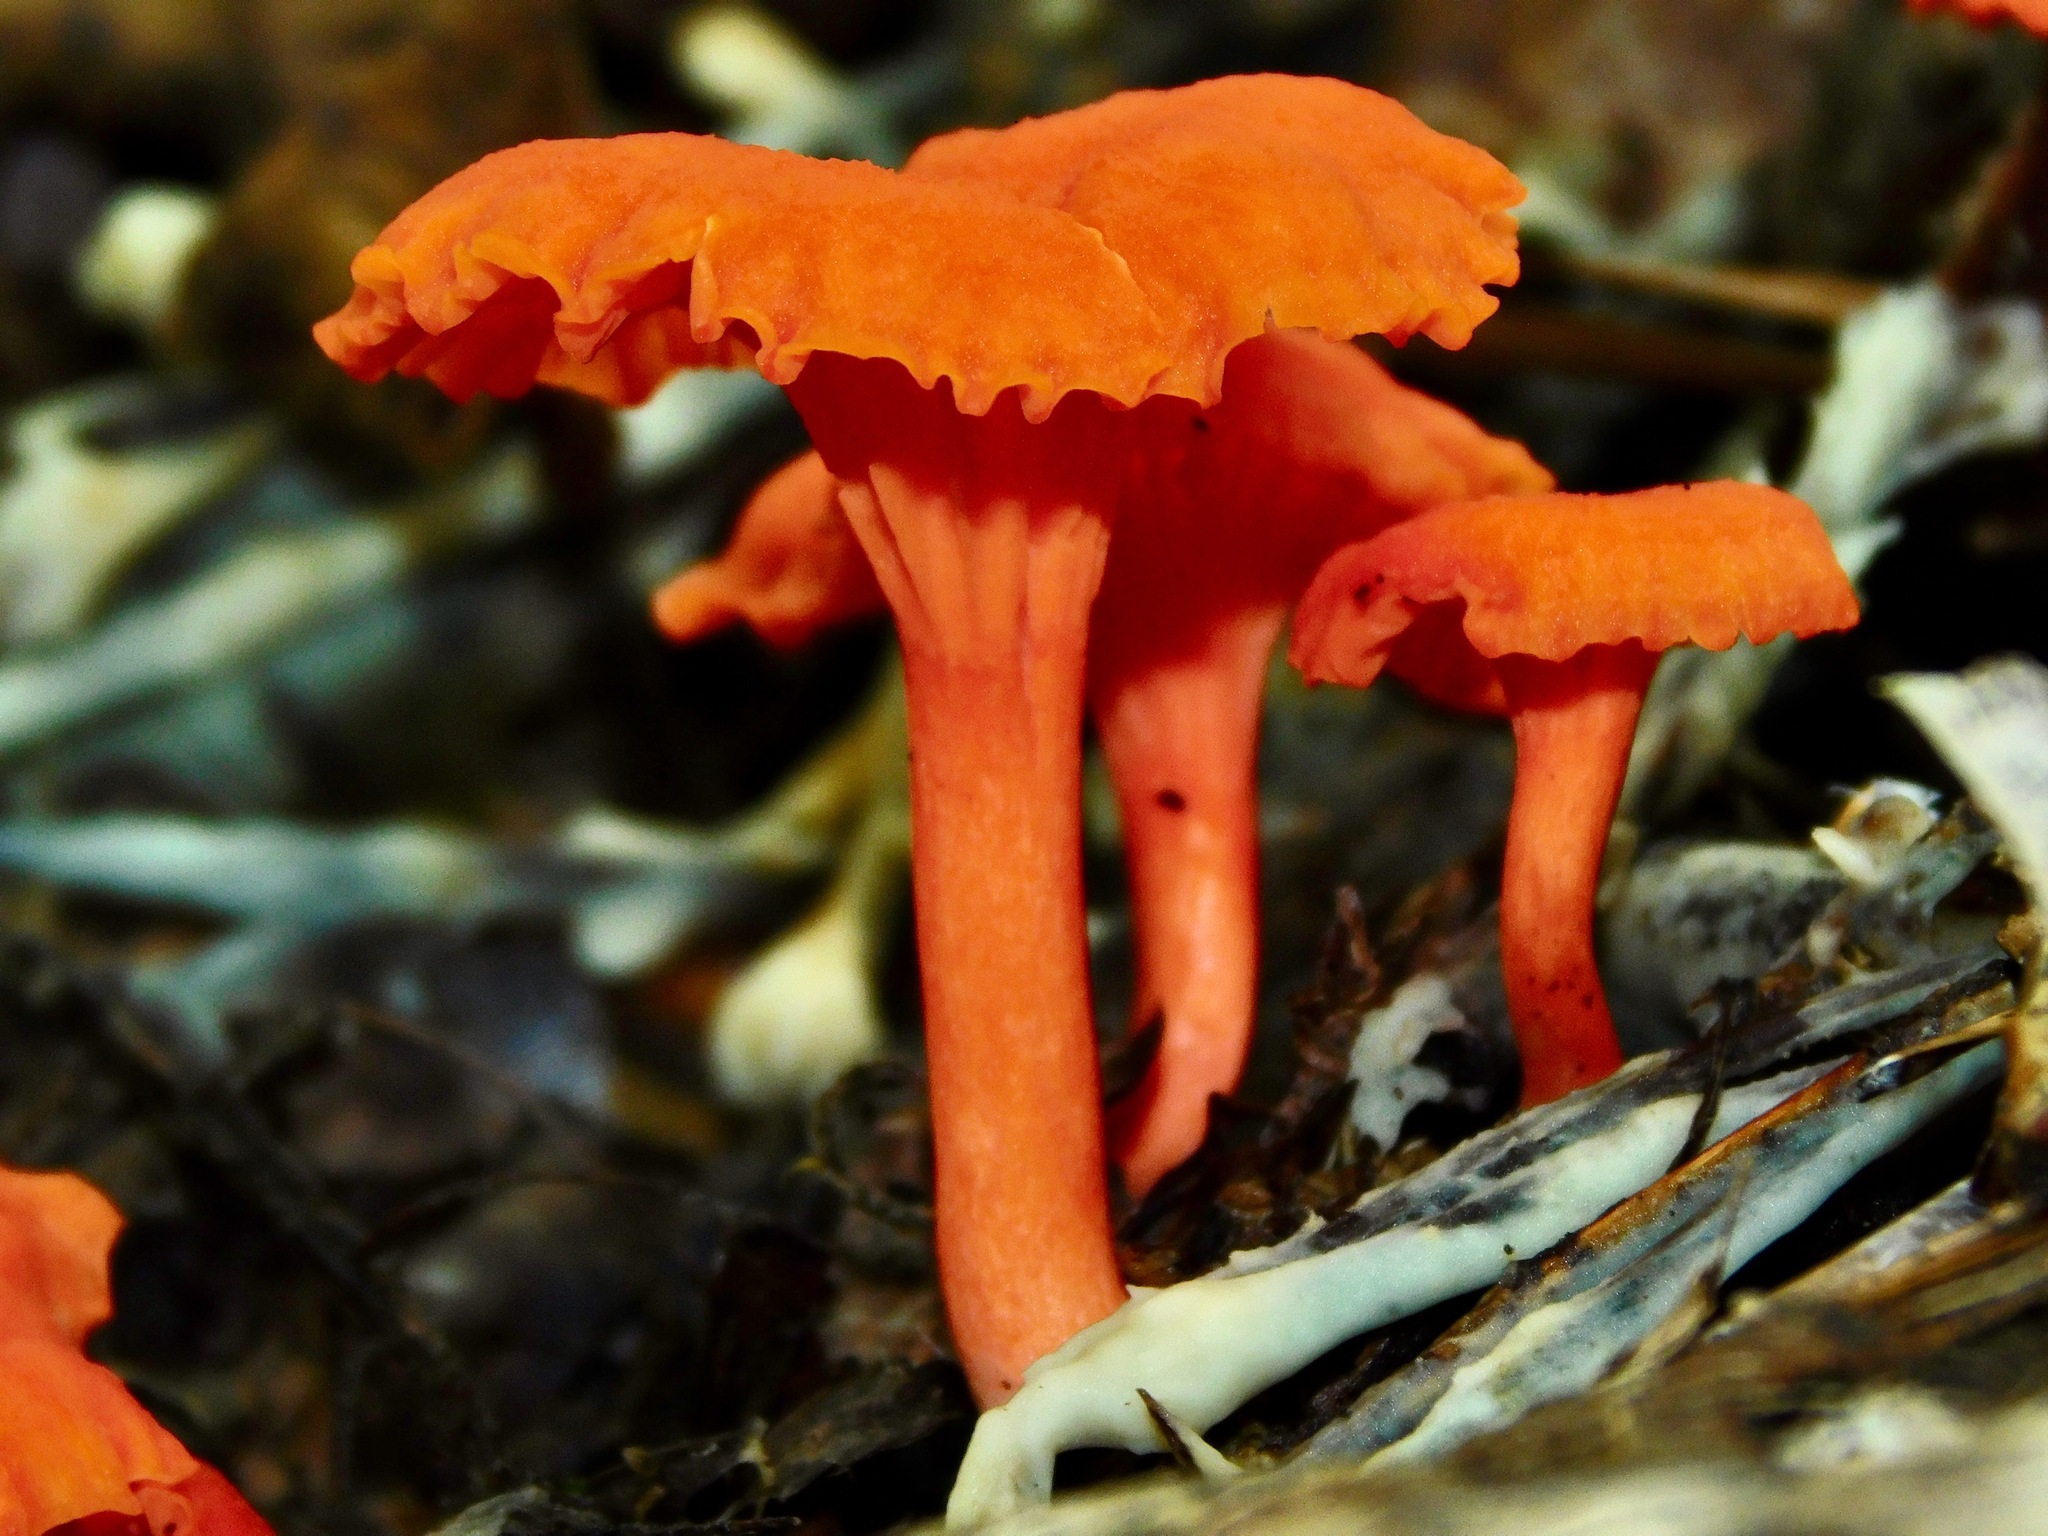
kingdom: Fungi
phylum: Basidiomycota
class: Agaricomycetes
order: Cantharellales
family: Hydnaceae
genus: Cantharellus
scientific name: Cantharellus cinnabarinus
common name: Cinnabar chanterelle
